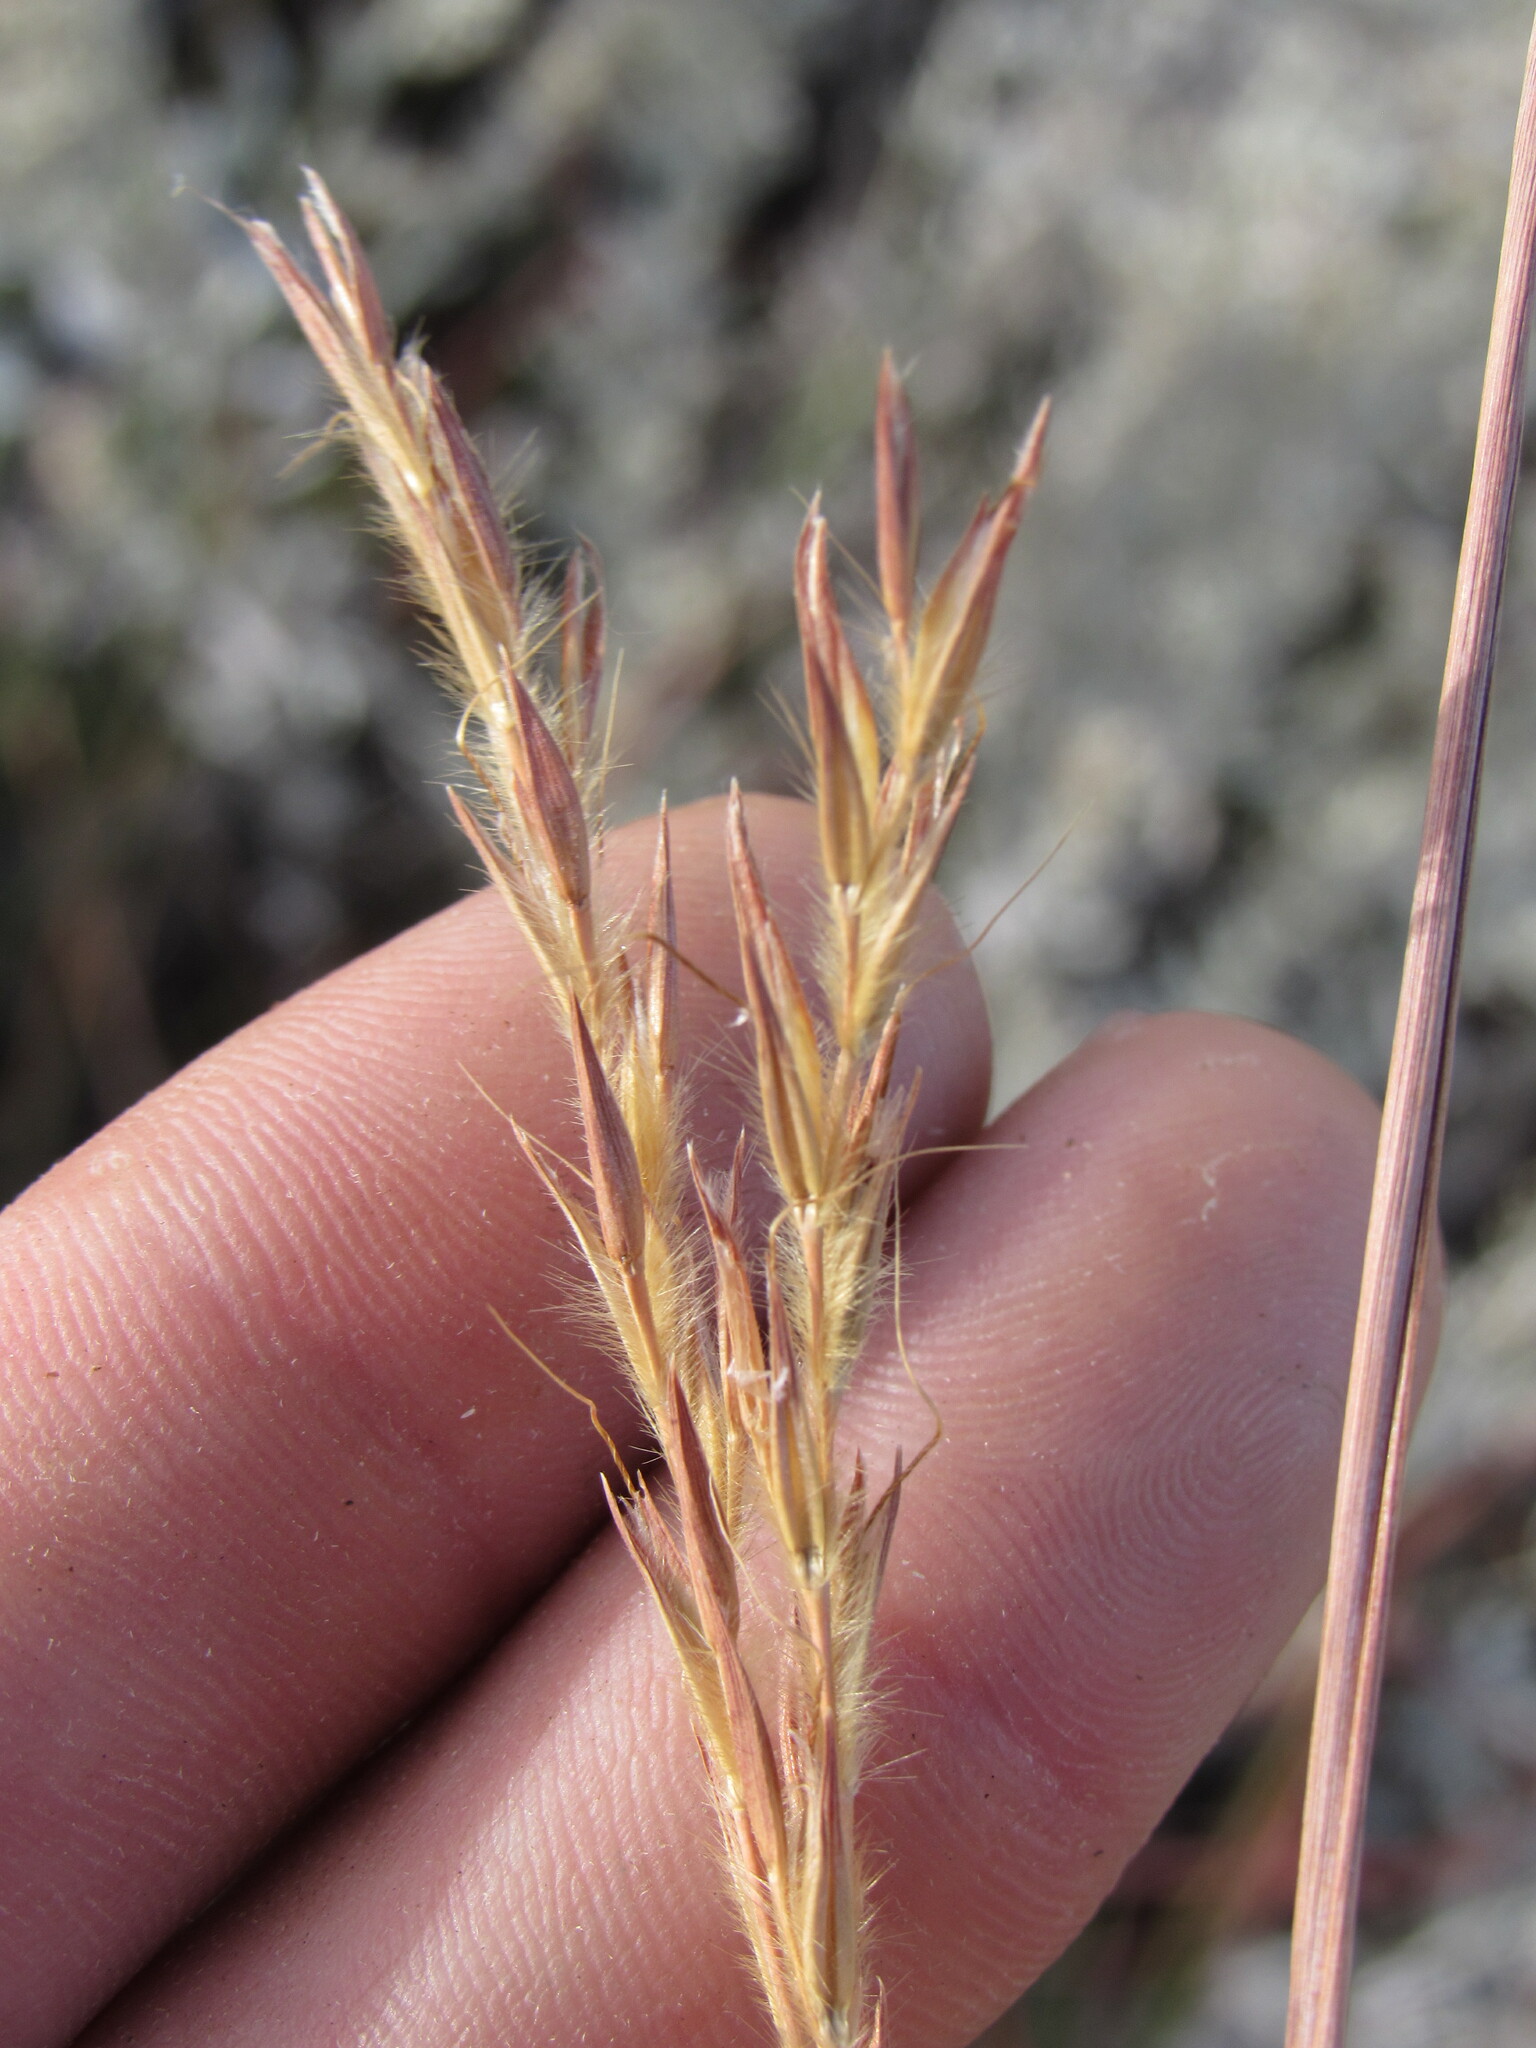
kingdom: Plantae
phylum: Tracheophyta
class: Liliopsida
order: Poales
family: Poaceae
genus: Andropogon
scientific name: Andropogon gerardi
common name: Big bluestem
